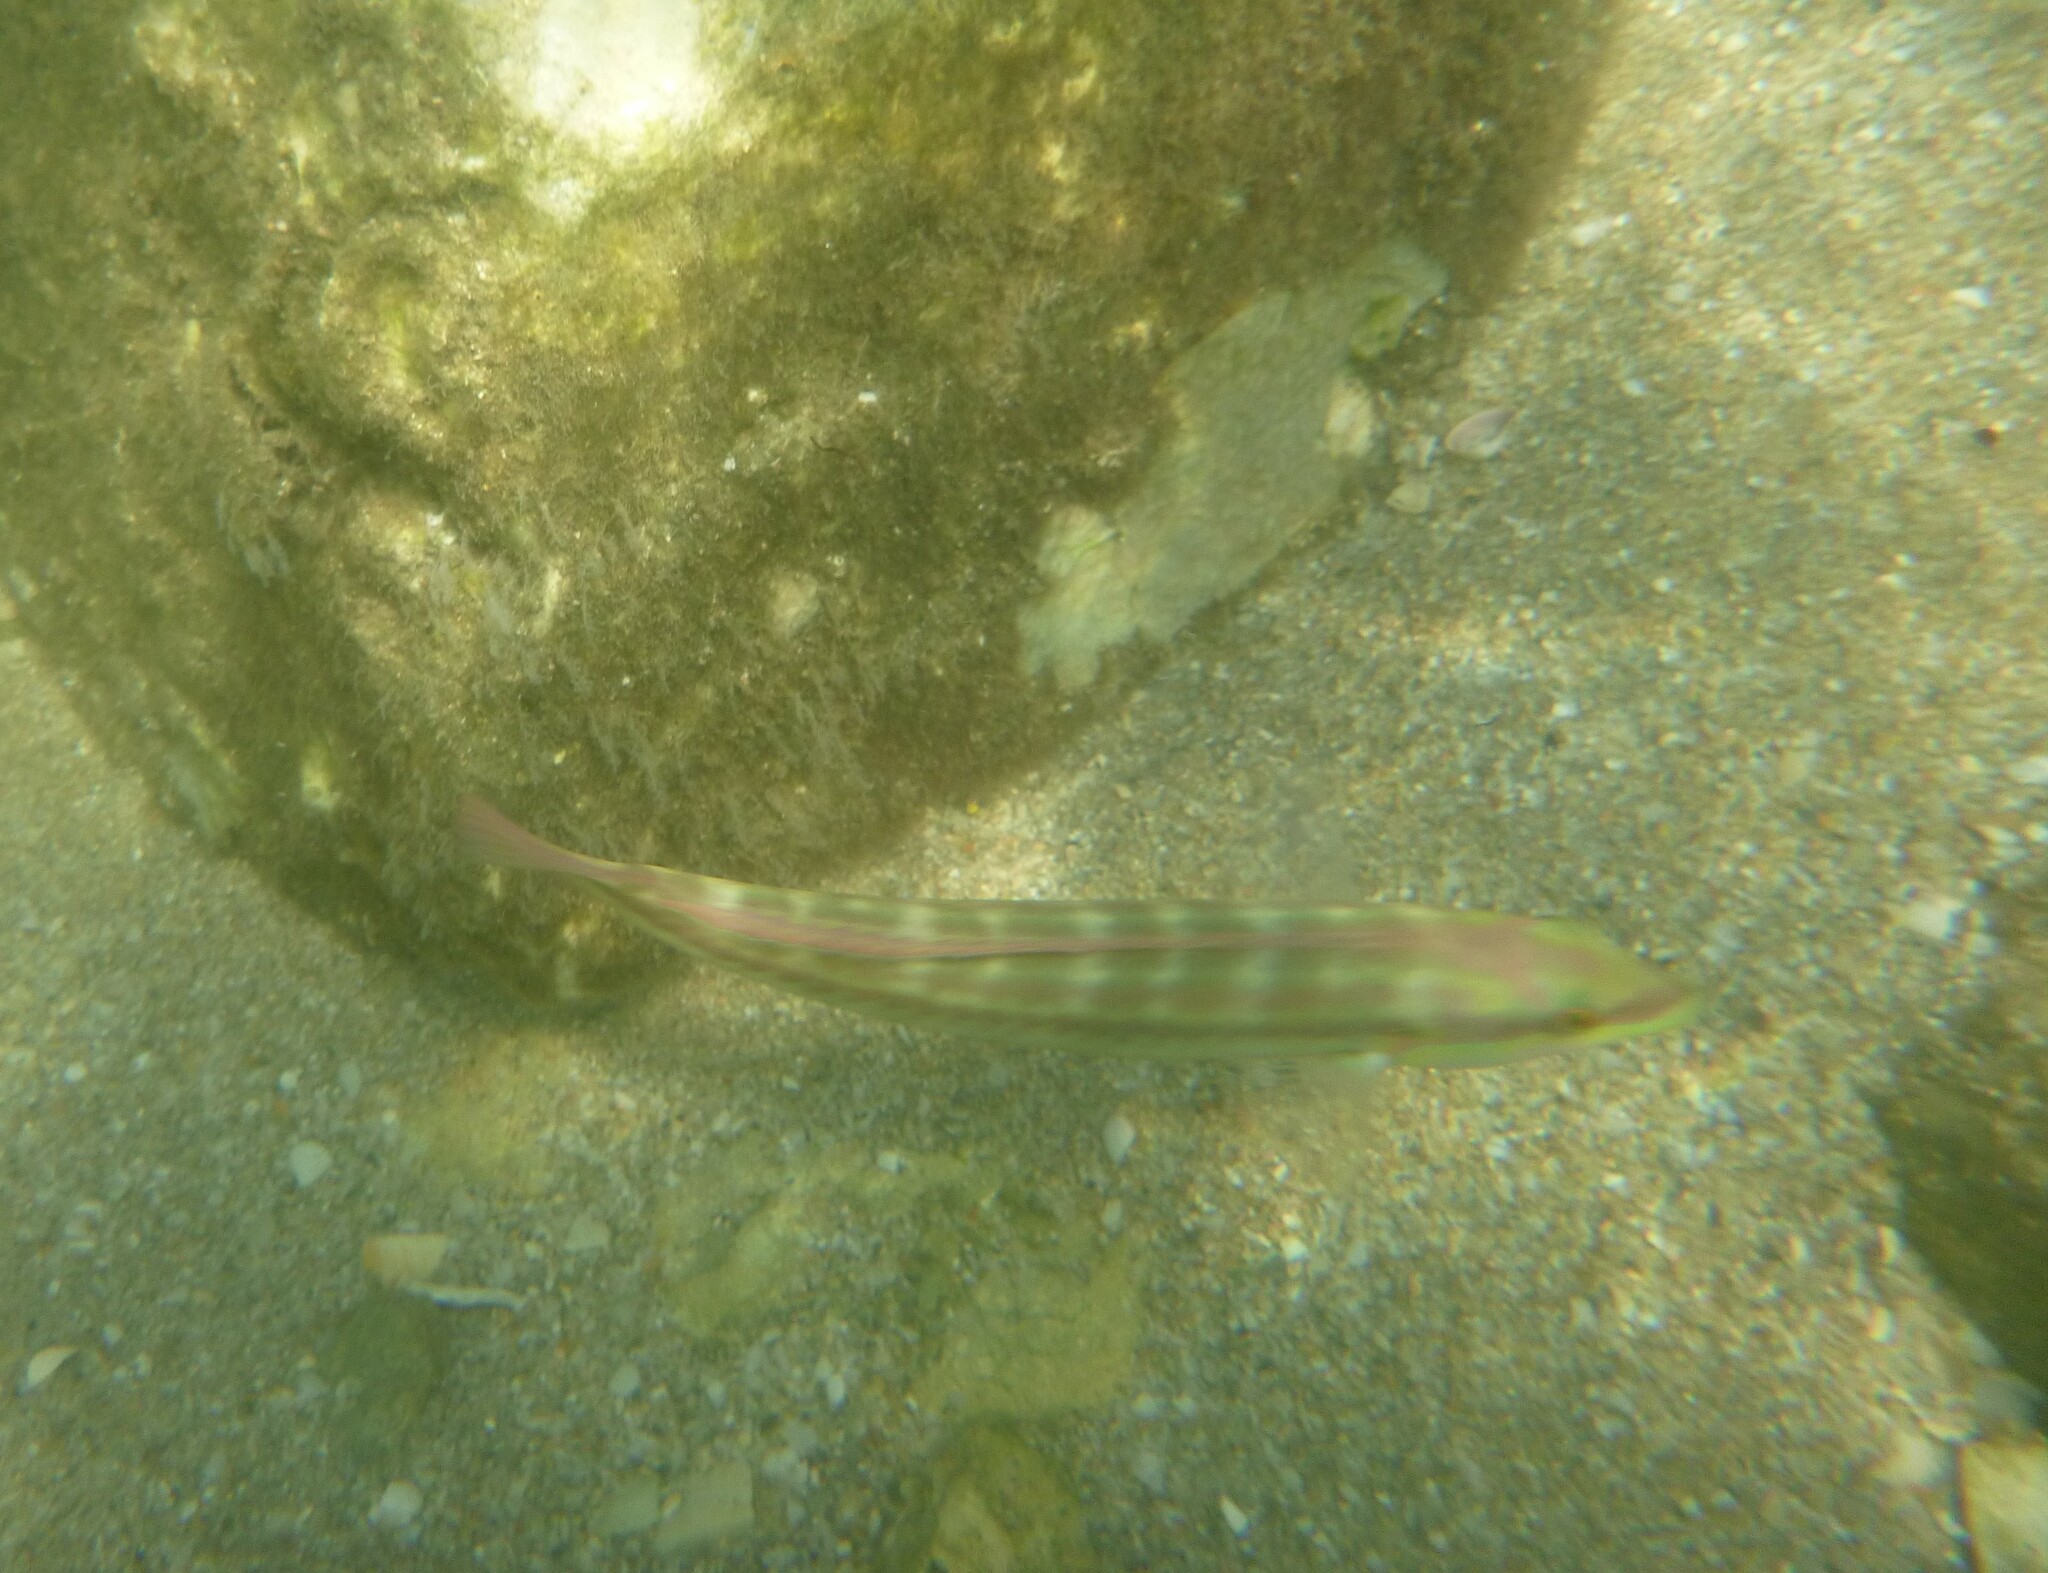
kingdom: Animalia
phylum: Chordata
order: Perciformes
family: Labridae
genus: Halichoeres
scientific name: Halichoeres bivittatus
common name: Slippery dick
